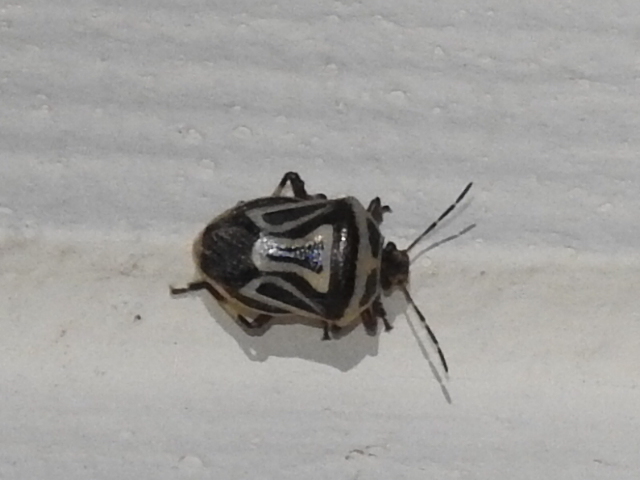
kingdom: Animalia
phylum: Arthropoda
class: Insecta
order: Hemiptera
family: Pentatomidae
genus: Perillus
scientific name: Perillus bioculatus
